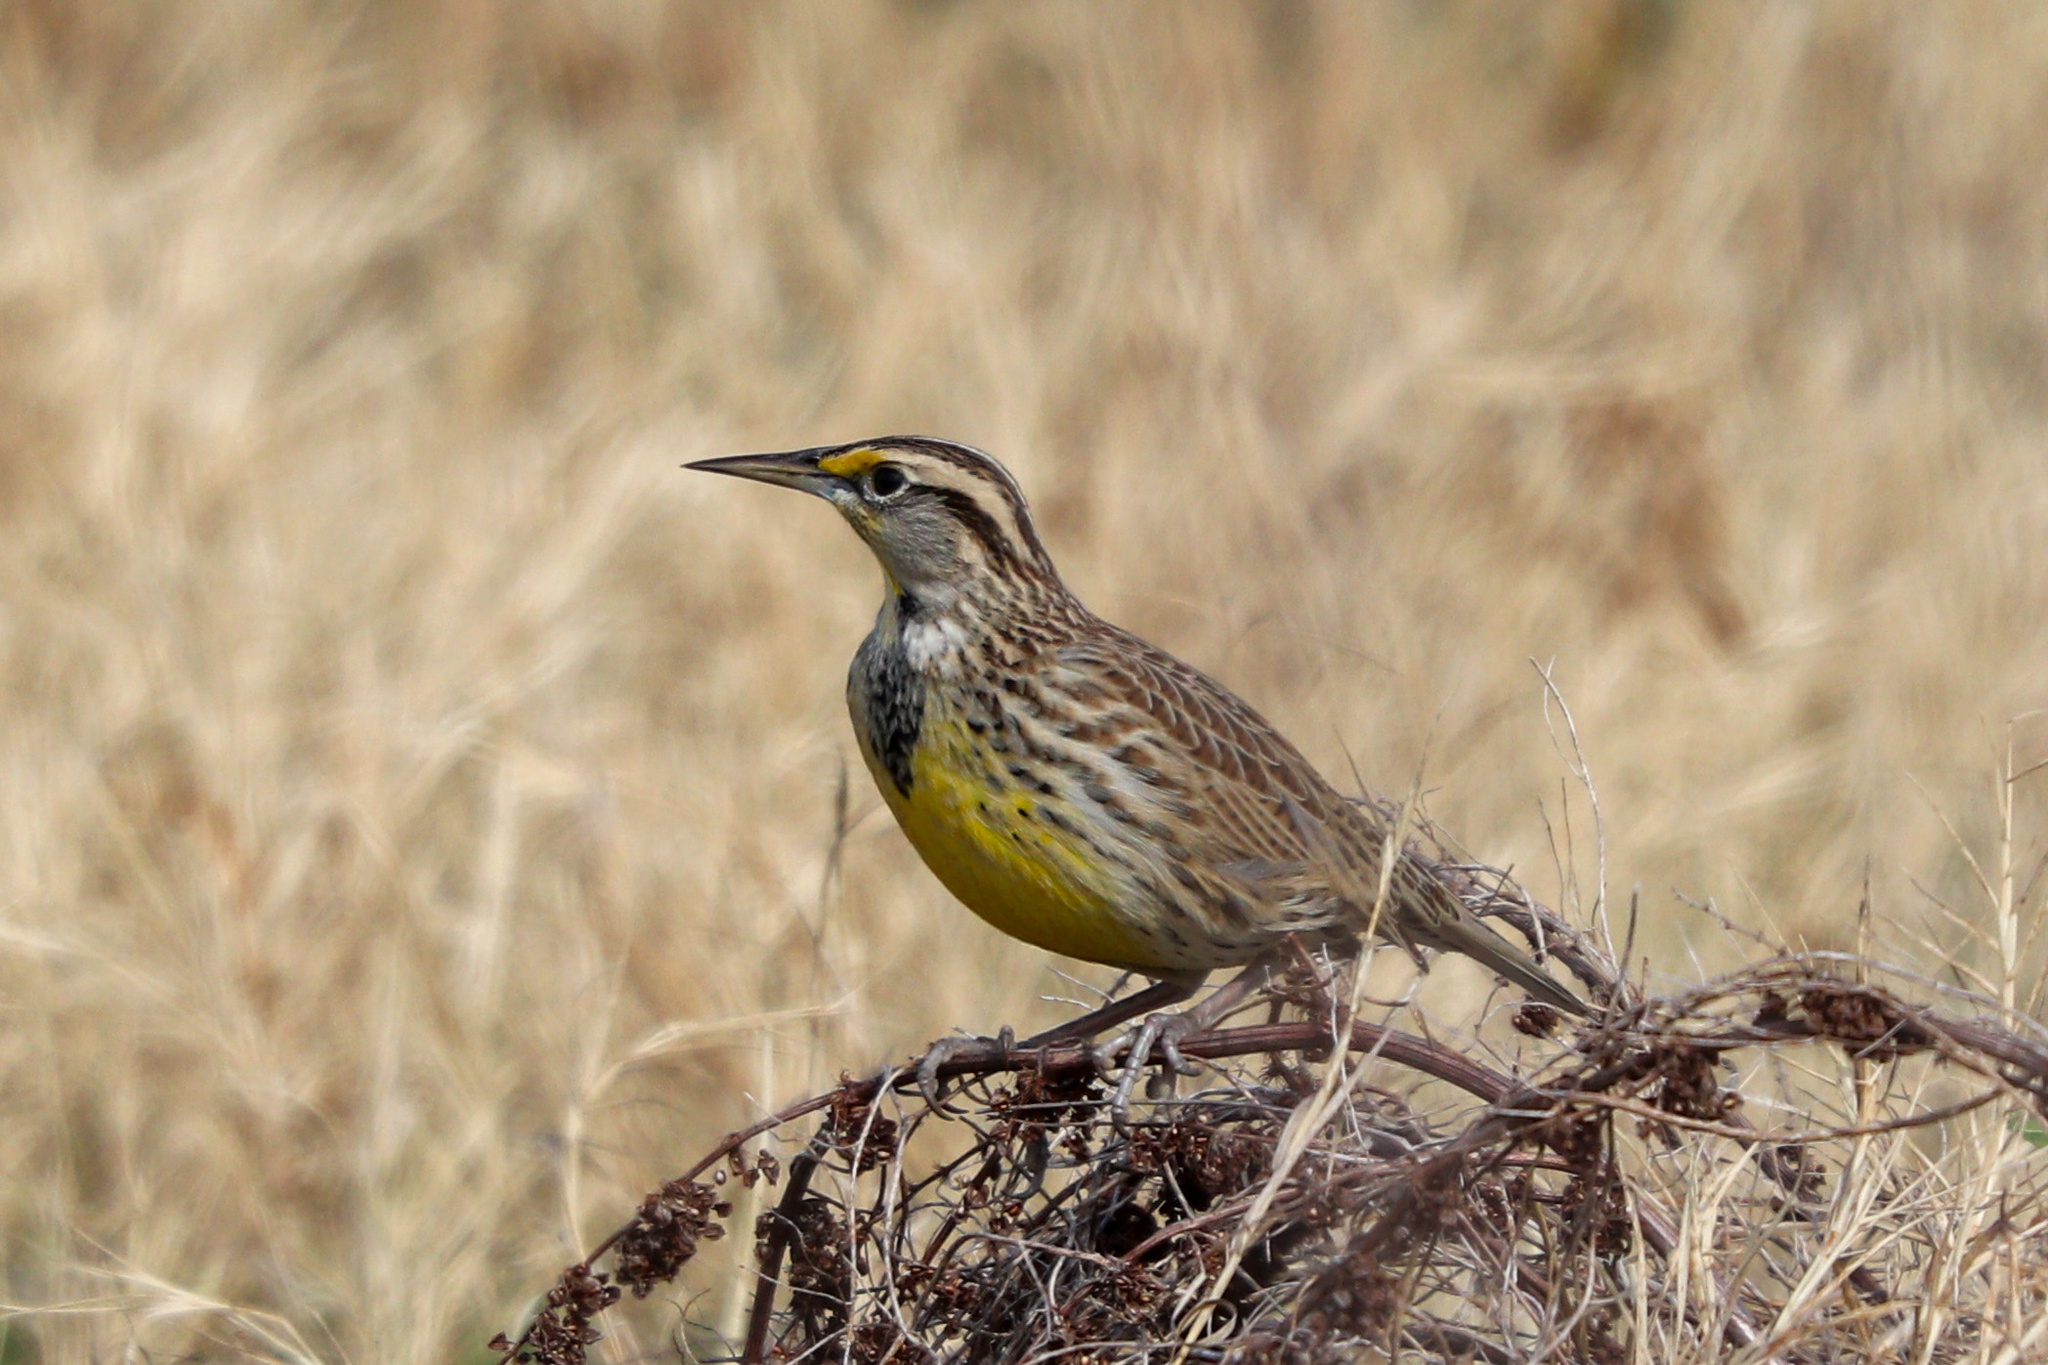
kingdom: Animalia
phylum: Chordata
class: Aves
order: Passeriformes
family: Icteridae
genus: Sturnella
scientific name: Sturnella neglecta
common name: Western meadowlark
